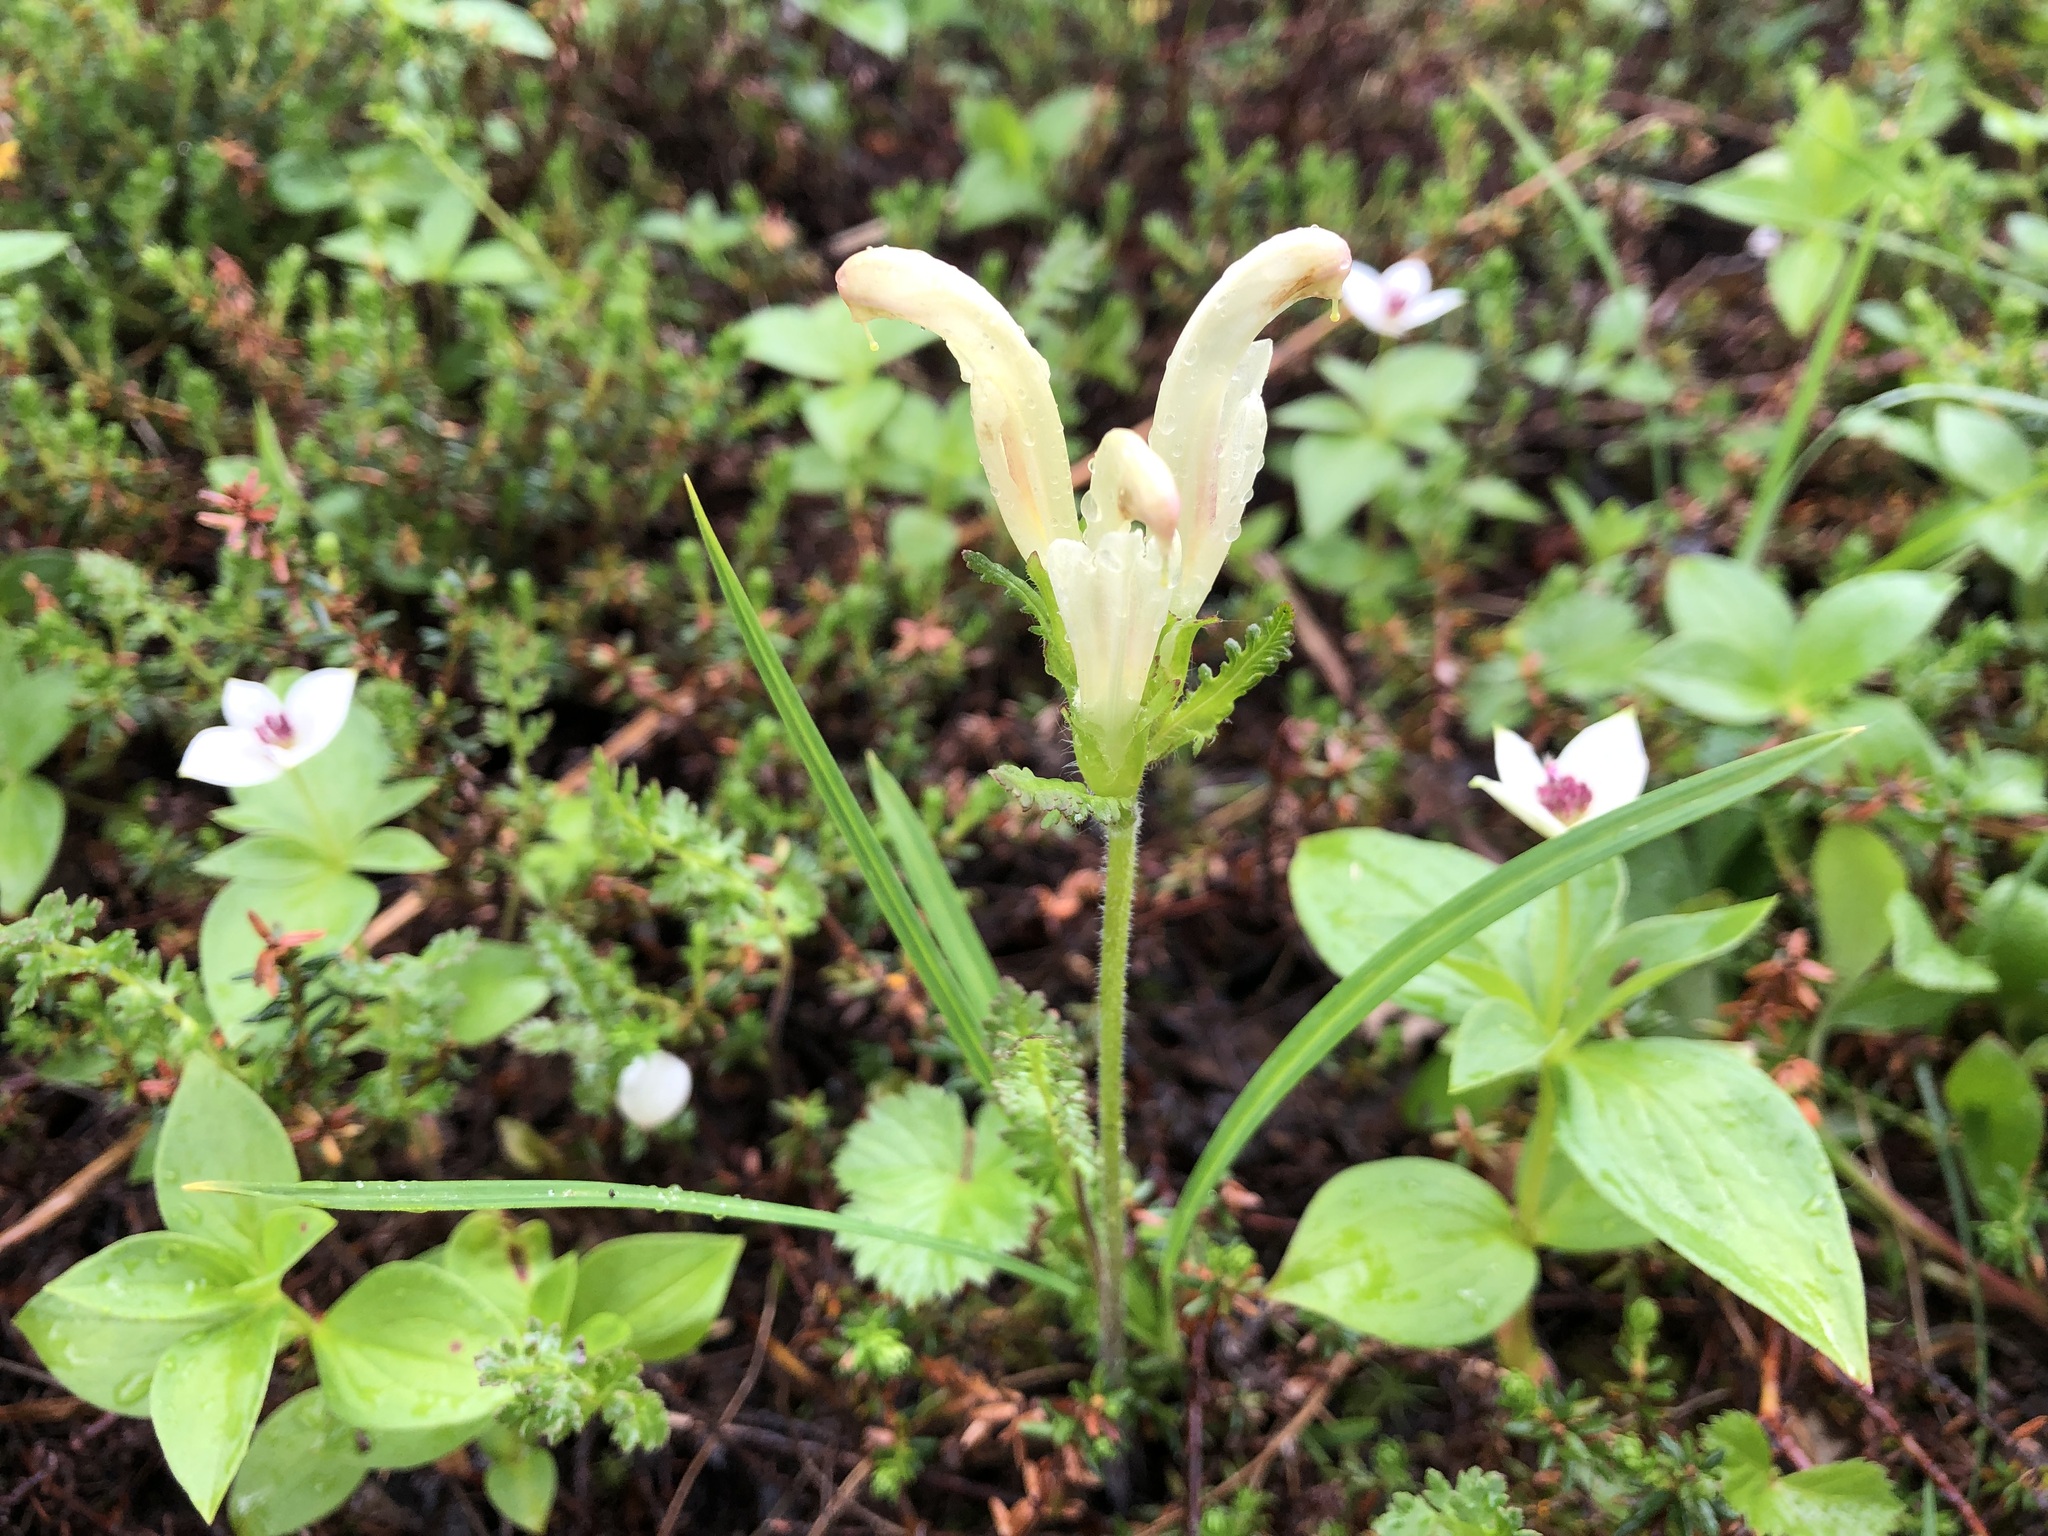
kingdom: Plantae
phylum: Tracheophyta
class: Magnoliopsida
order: Lamiales
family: Orobanchaceae
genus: Pedicularis
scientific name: Pedicularis capitata
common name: Capitate lousewort
